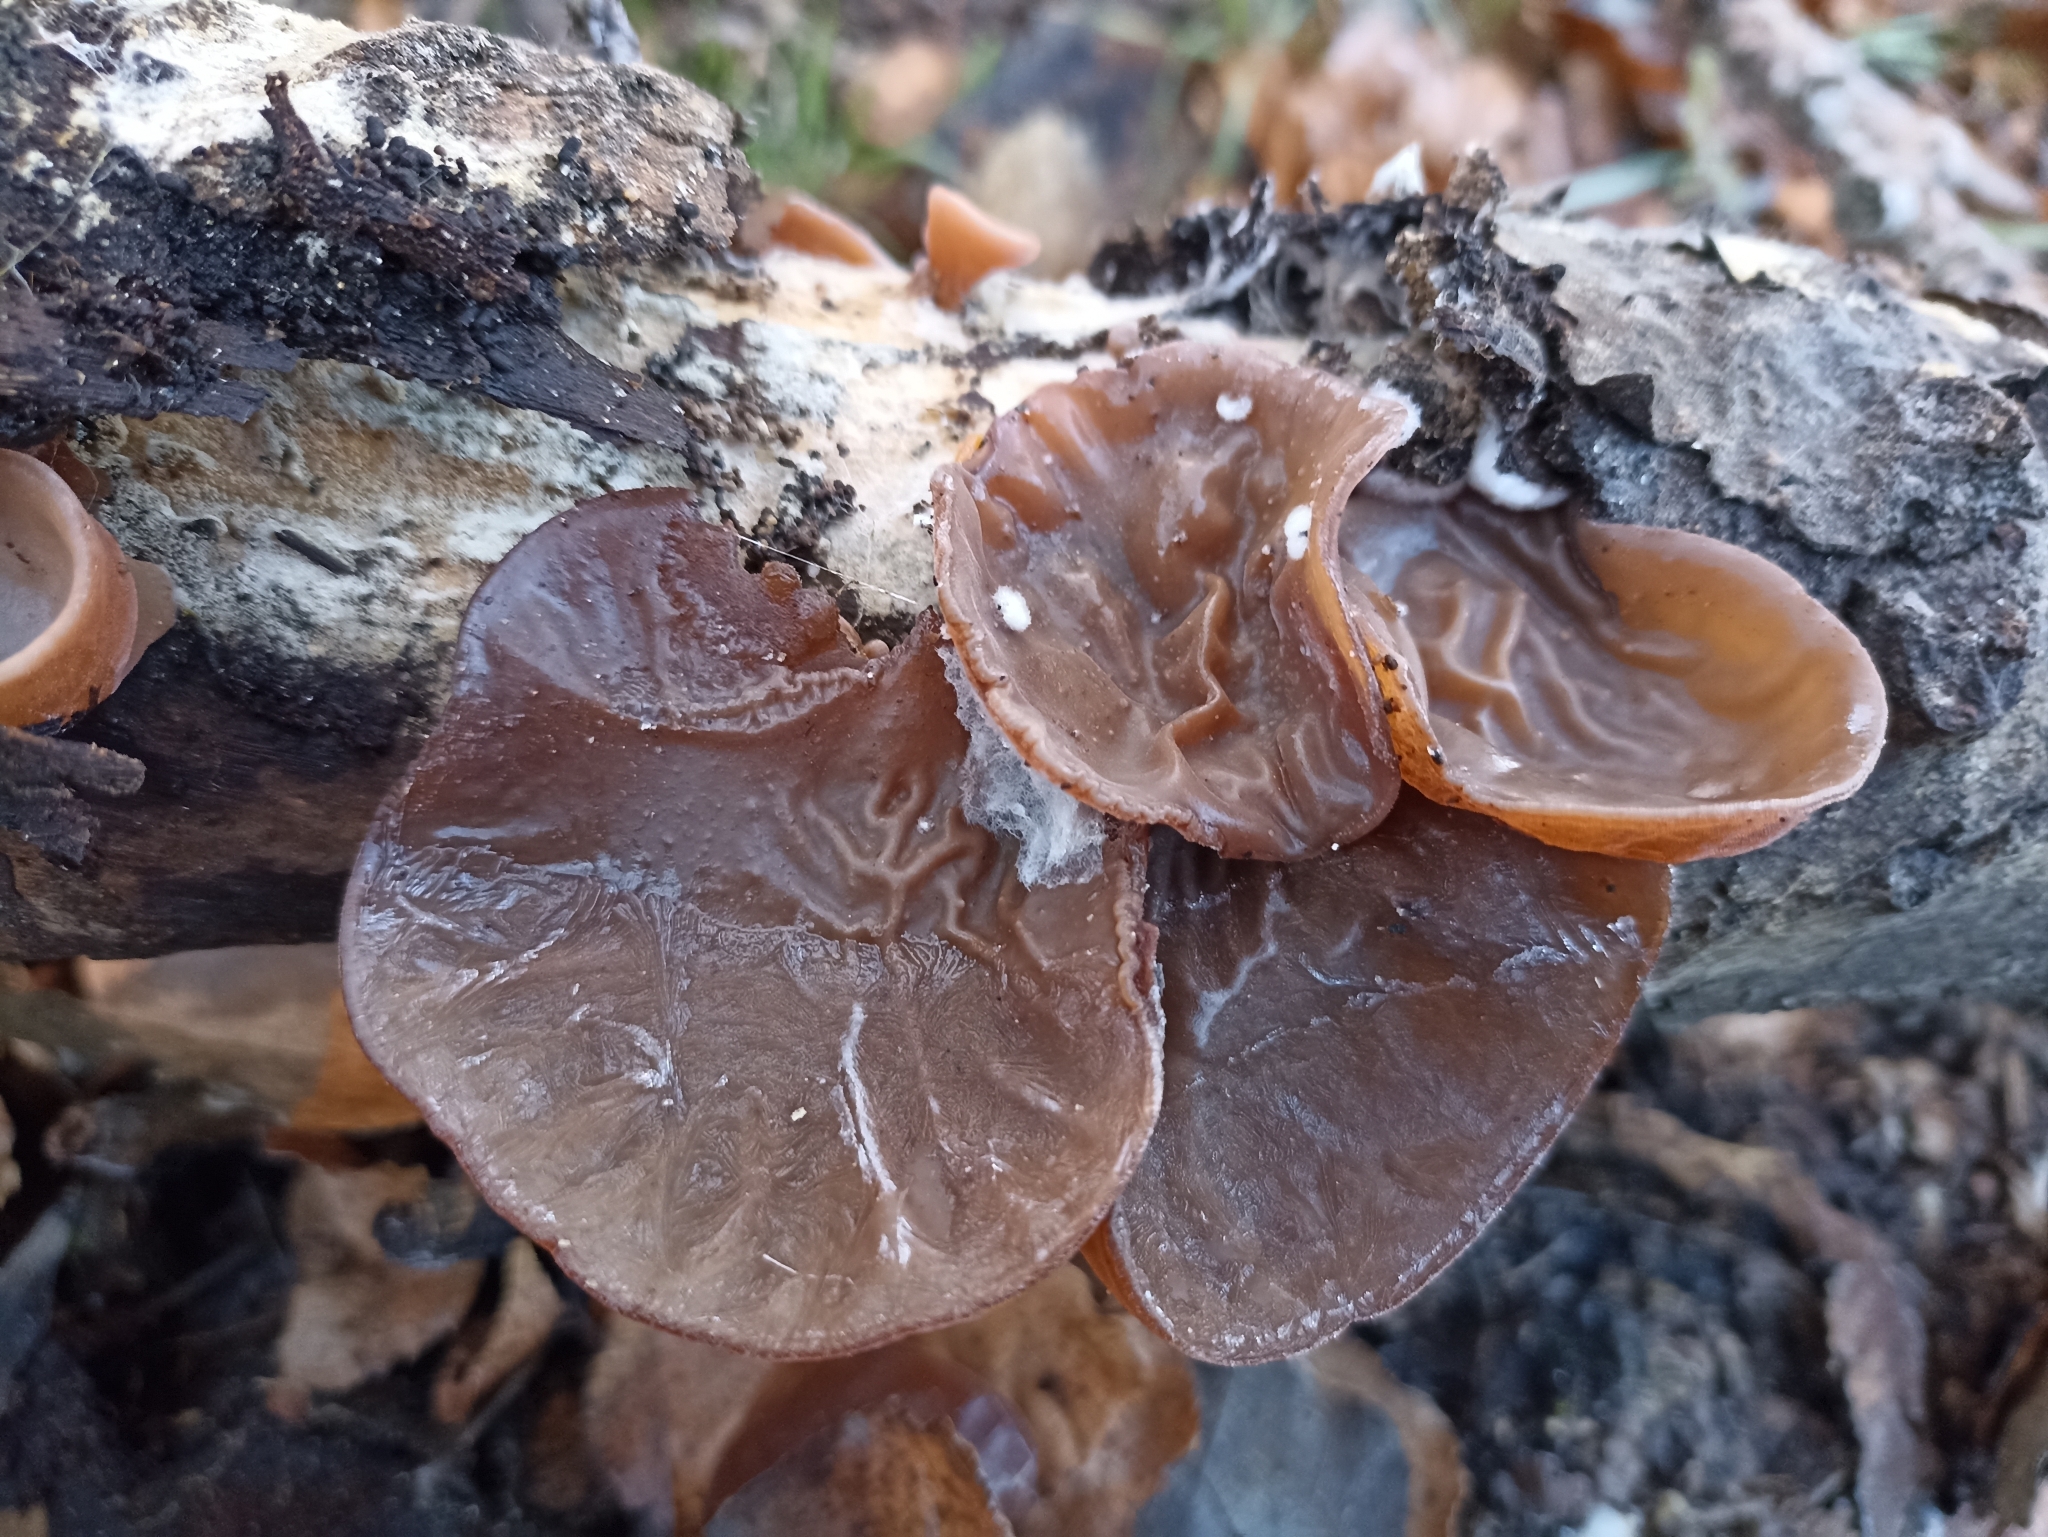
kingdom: Fungi
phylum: Basidiomycota
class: Agaricomycetes
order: Auriculariales
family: Auriculariaceae
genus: Auricularia
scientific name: Auricularia auricula-judae
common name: Jelly ear
